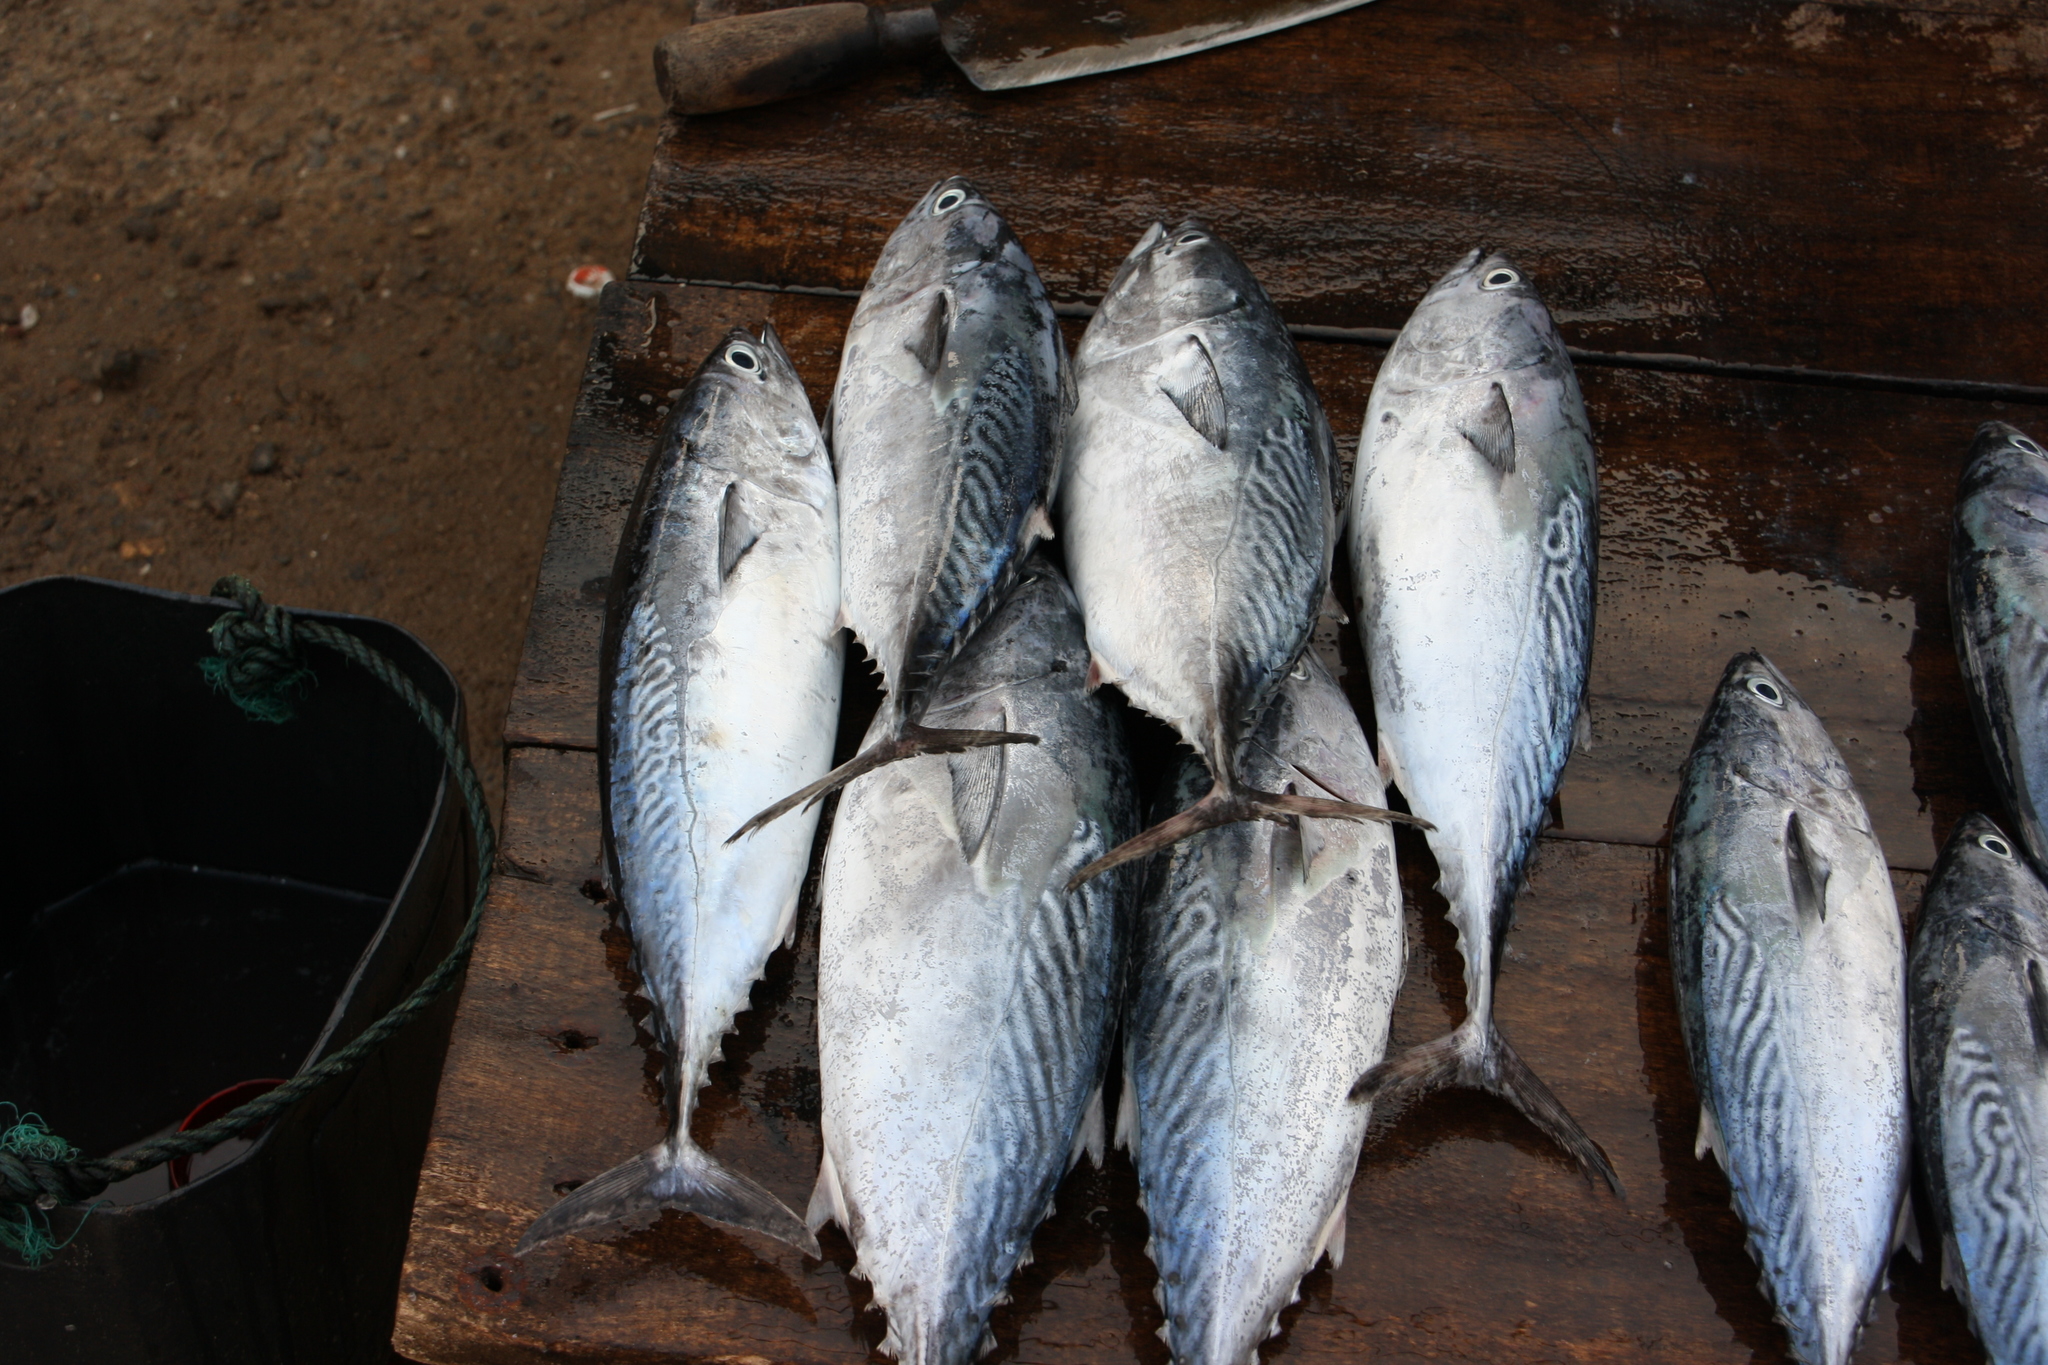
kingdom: Animalia
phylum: Chordata
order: Perciformes
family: Scombridae
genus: Euthynnus
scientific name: Euthynnus affinis
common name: Mackerel tuna
